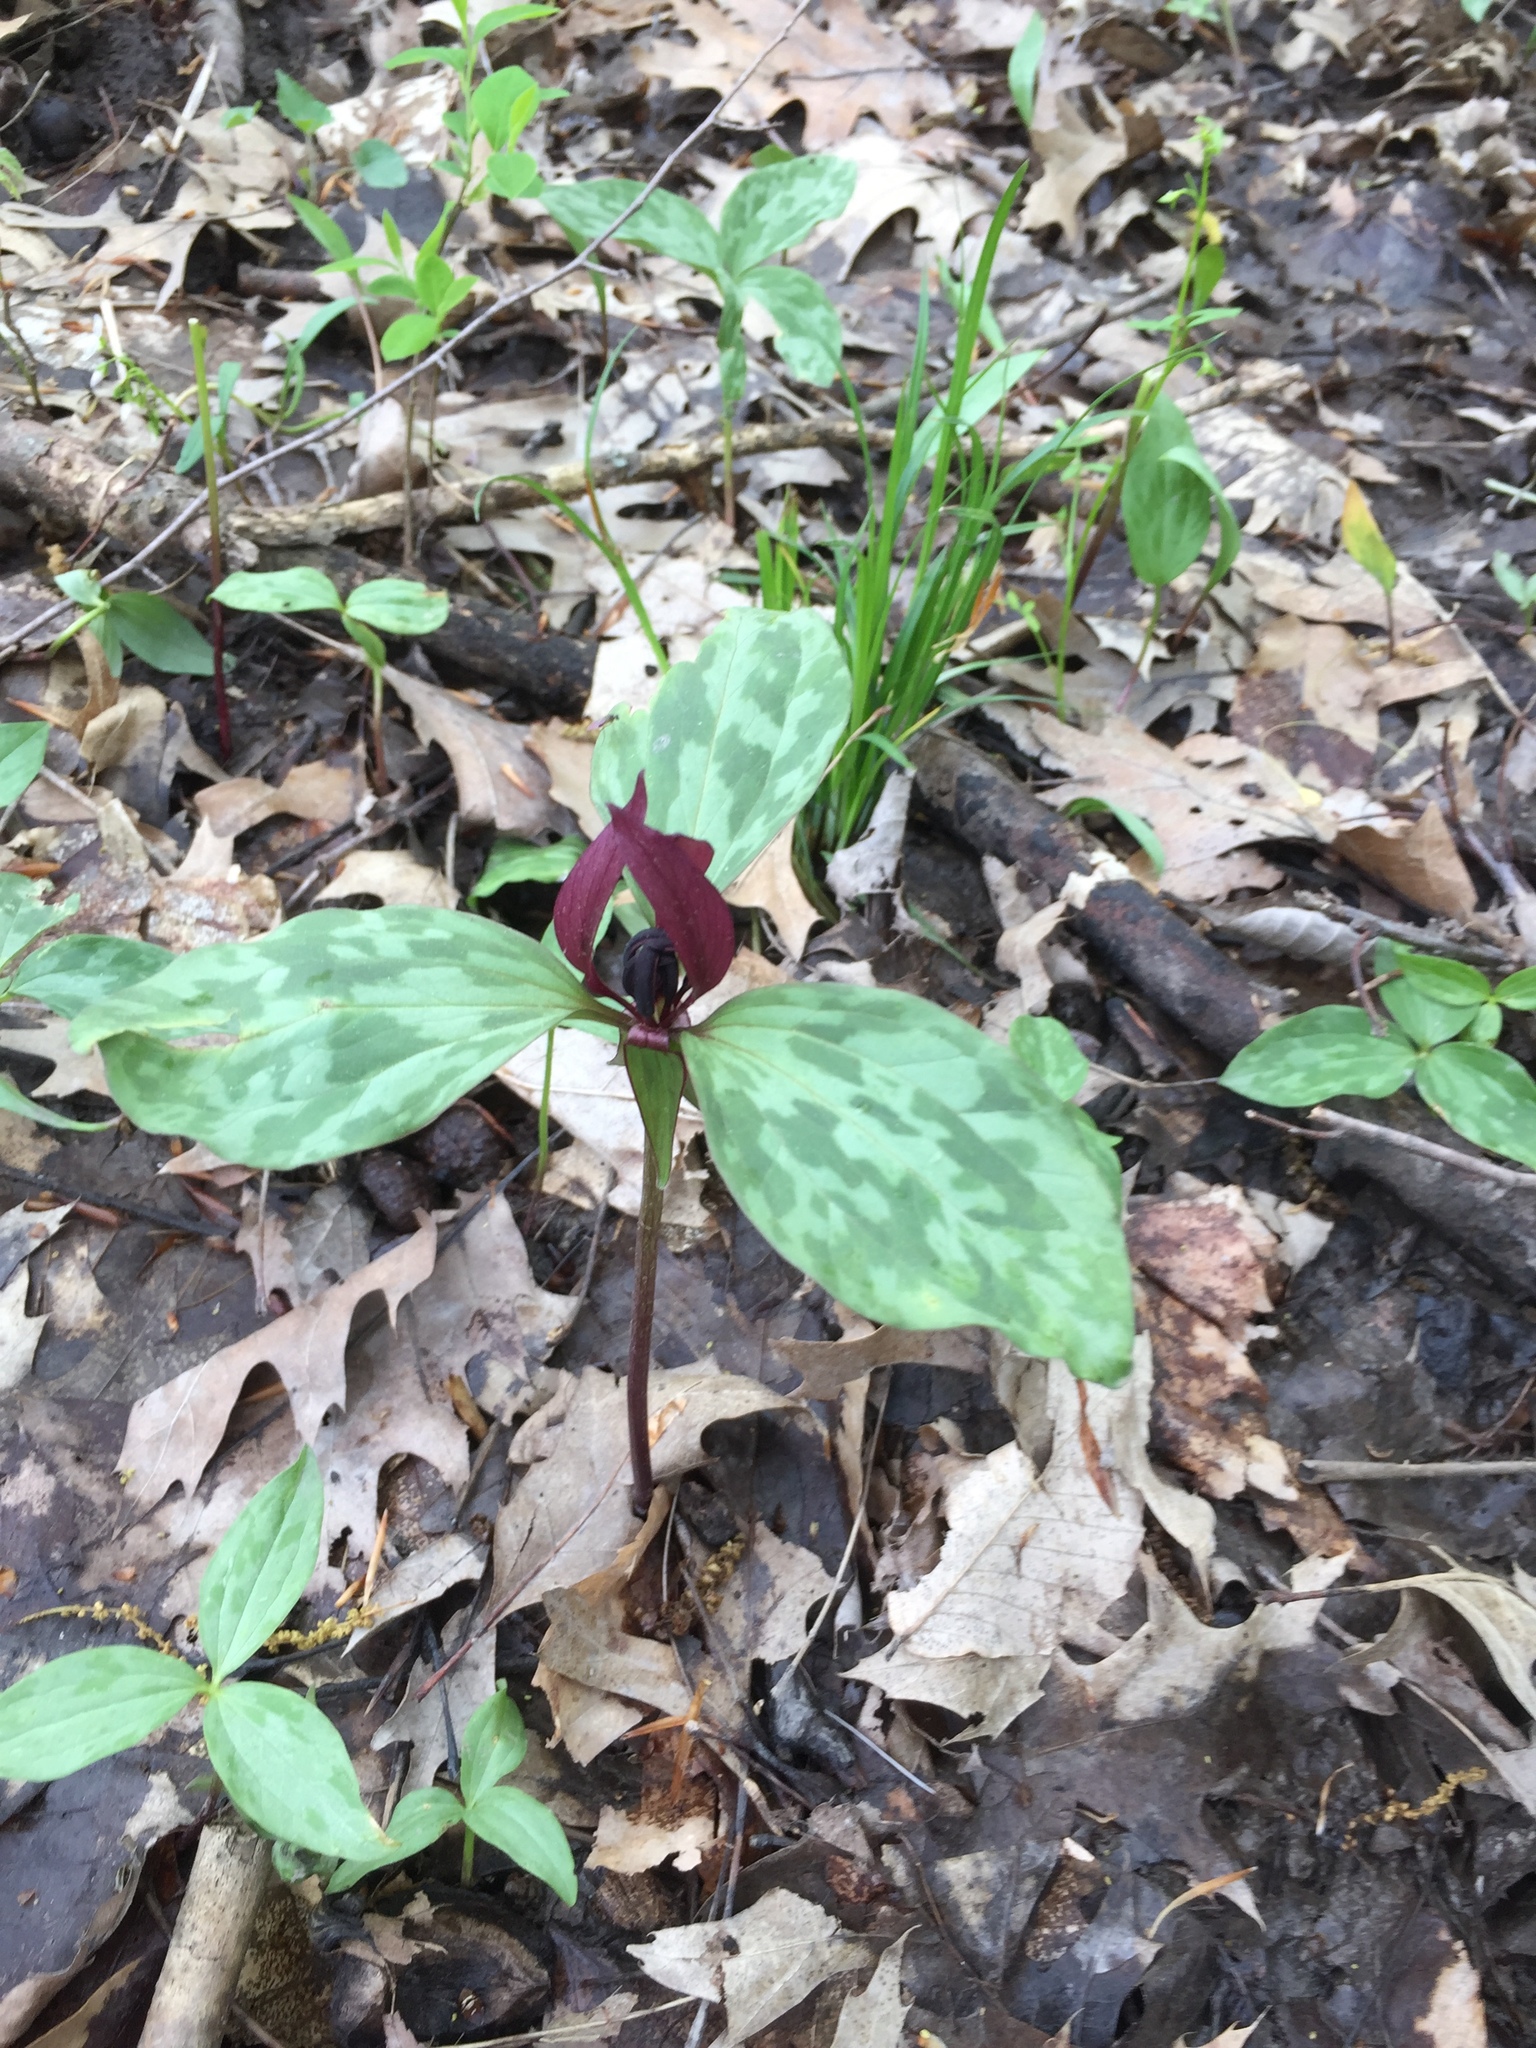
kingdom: Plantae
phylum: Tracheophyta
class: Liliopsida
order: Liliales
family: Melanthiaceae
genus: Trillium
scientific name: Trillium recurvatum
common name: Bloody butcher
